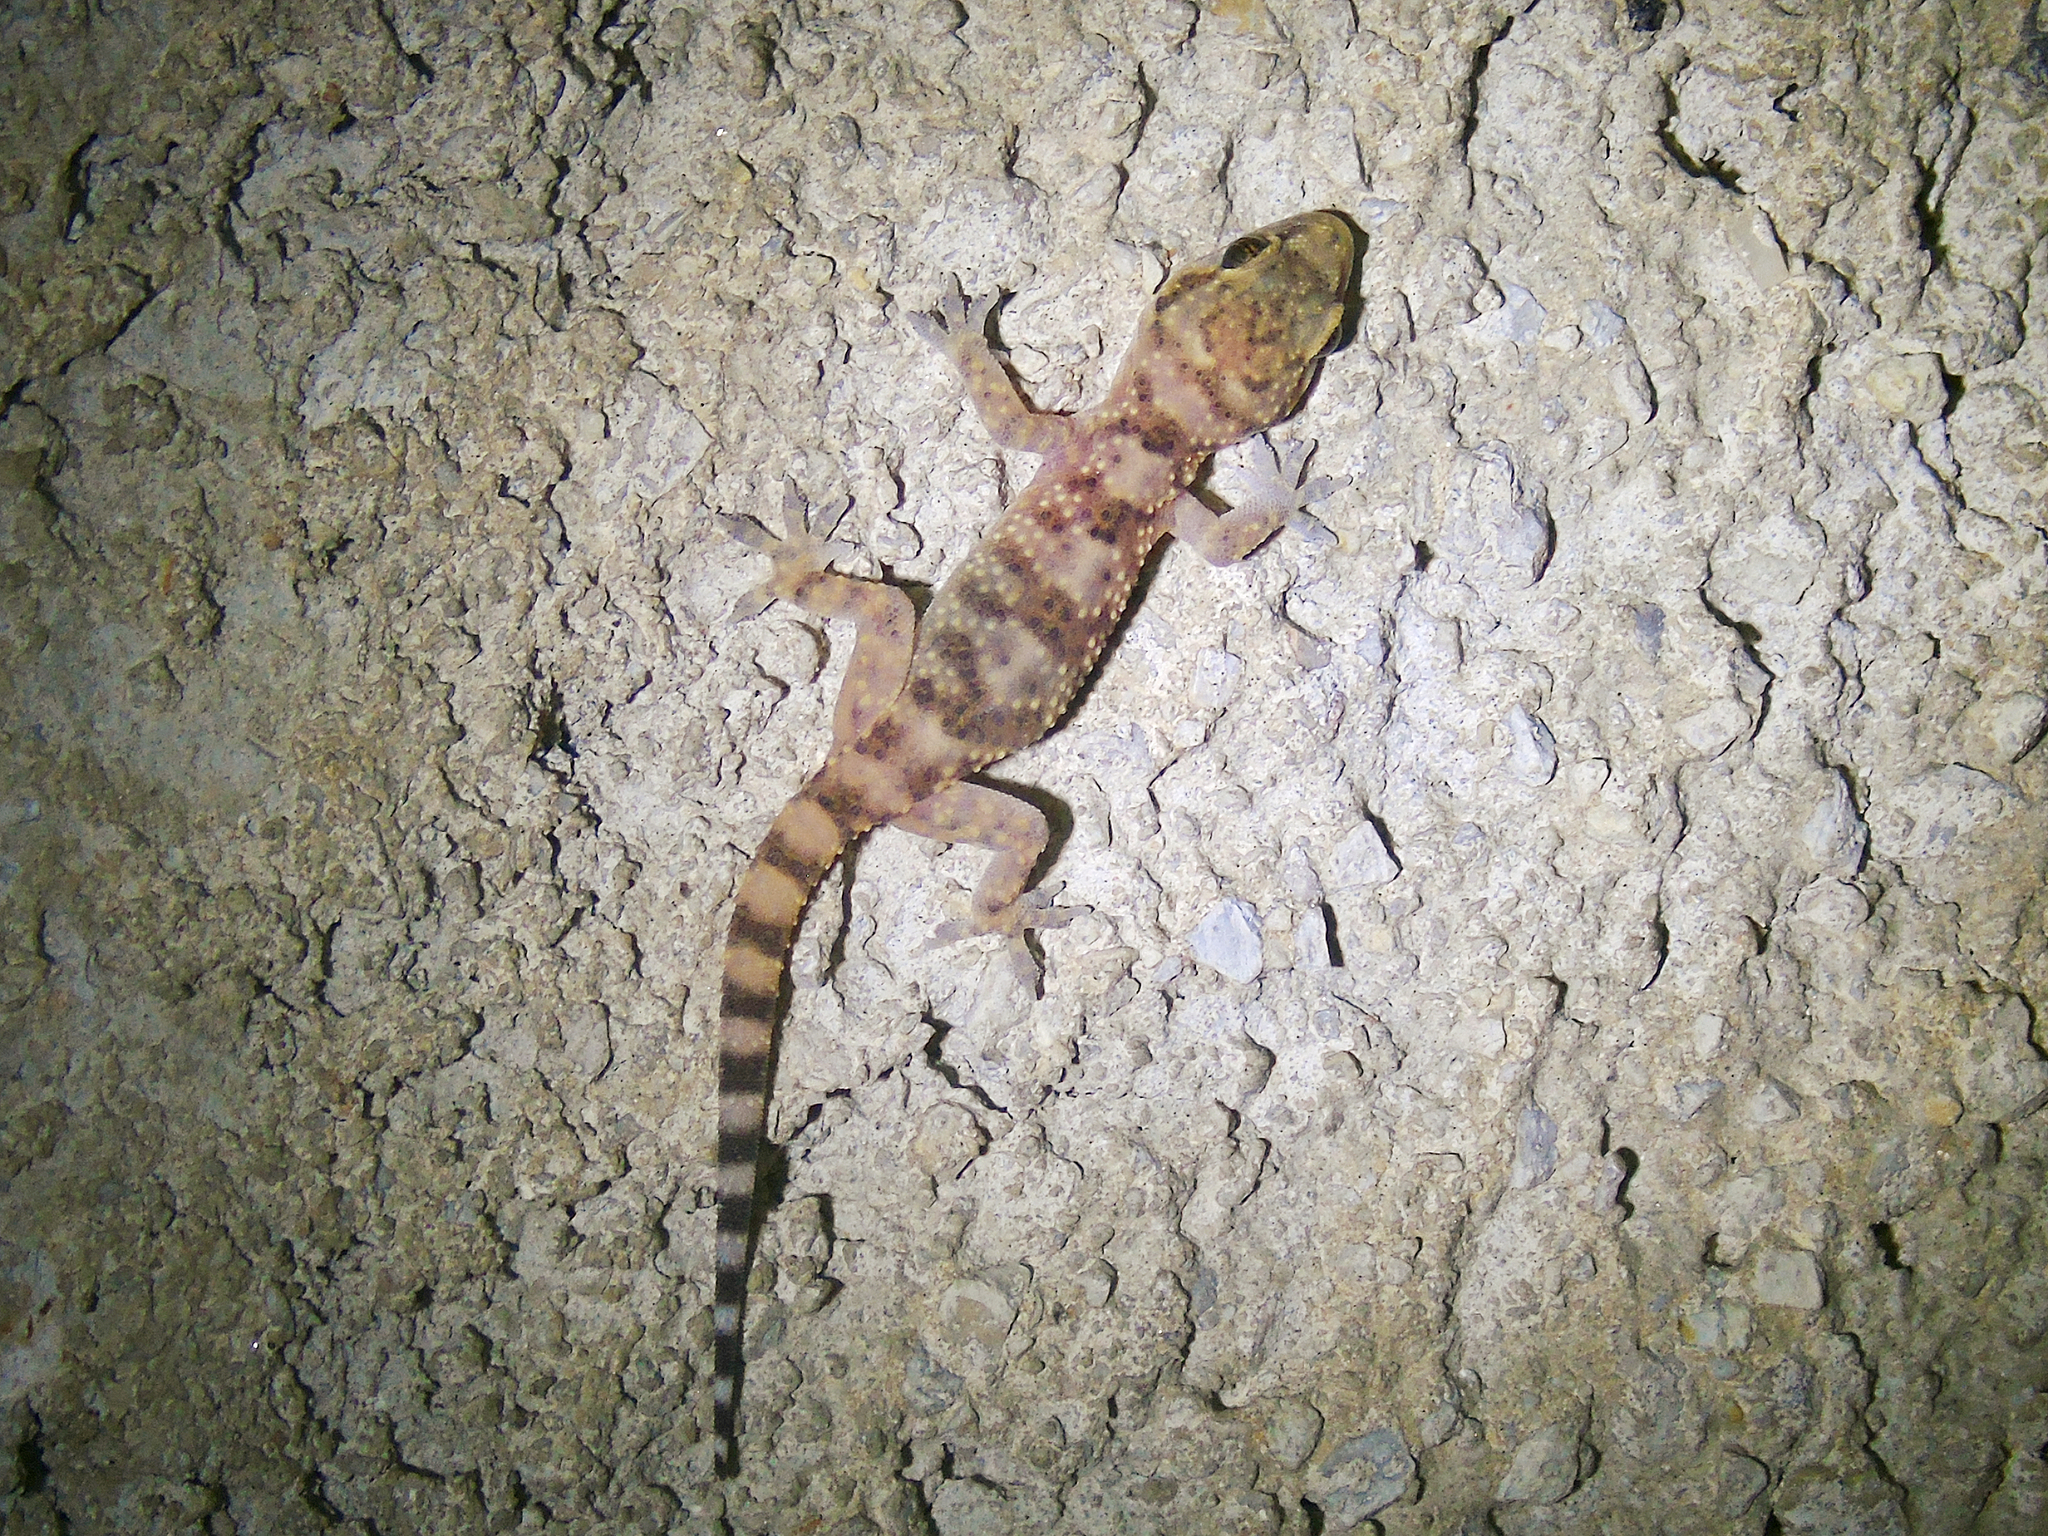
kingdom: Animalia
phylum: Chordata
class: Squamata
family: Gekkonidae
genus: Hemidactylus
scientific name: Hemidactylus turcicus
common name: Turkish gecko
